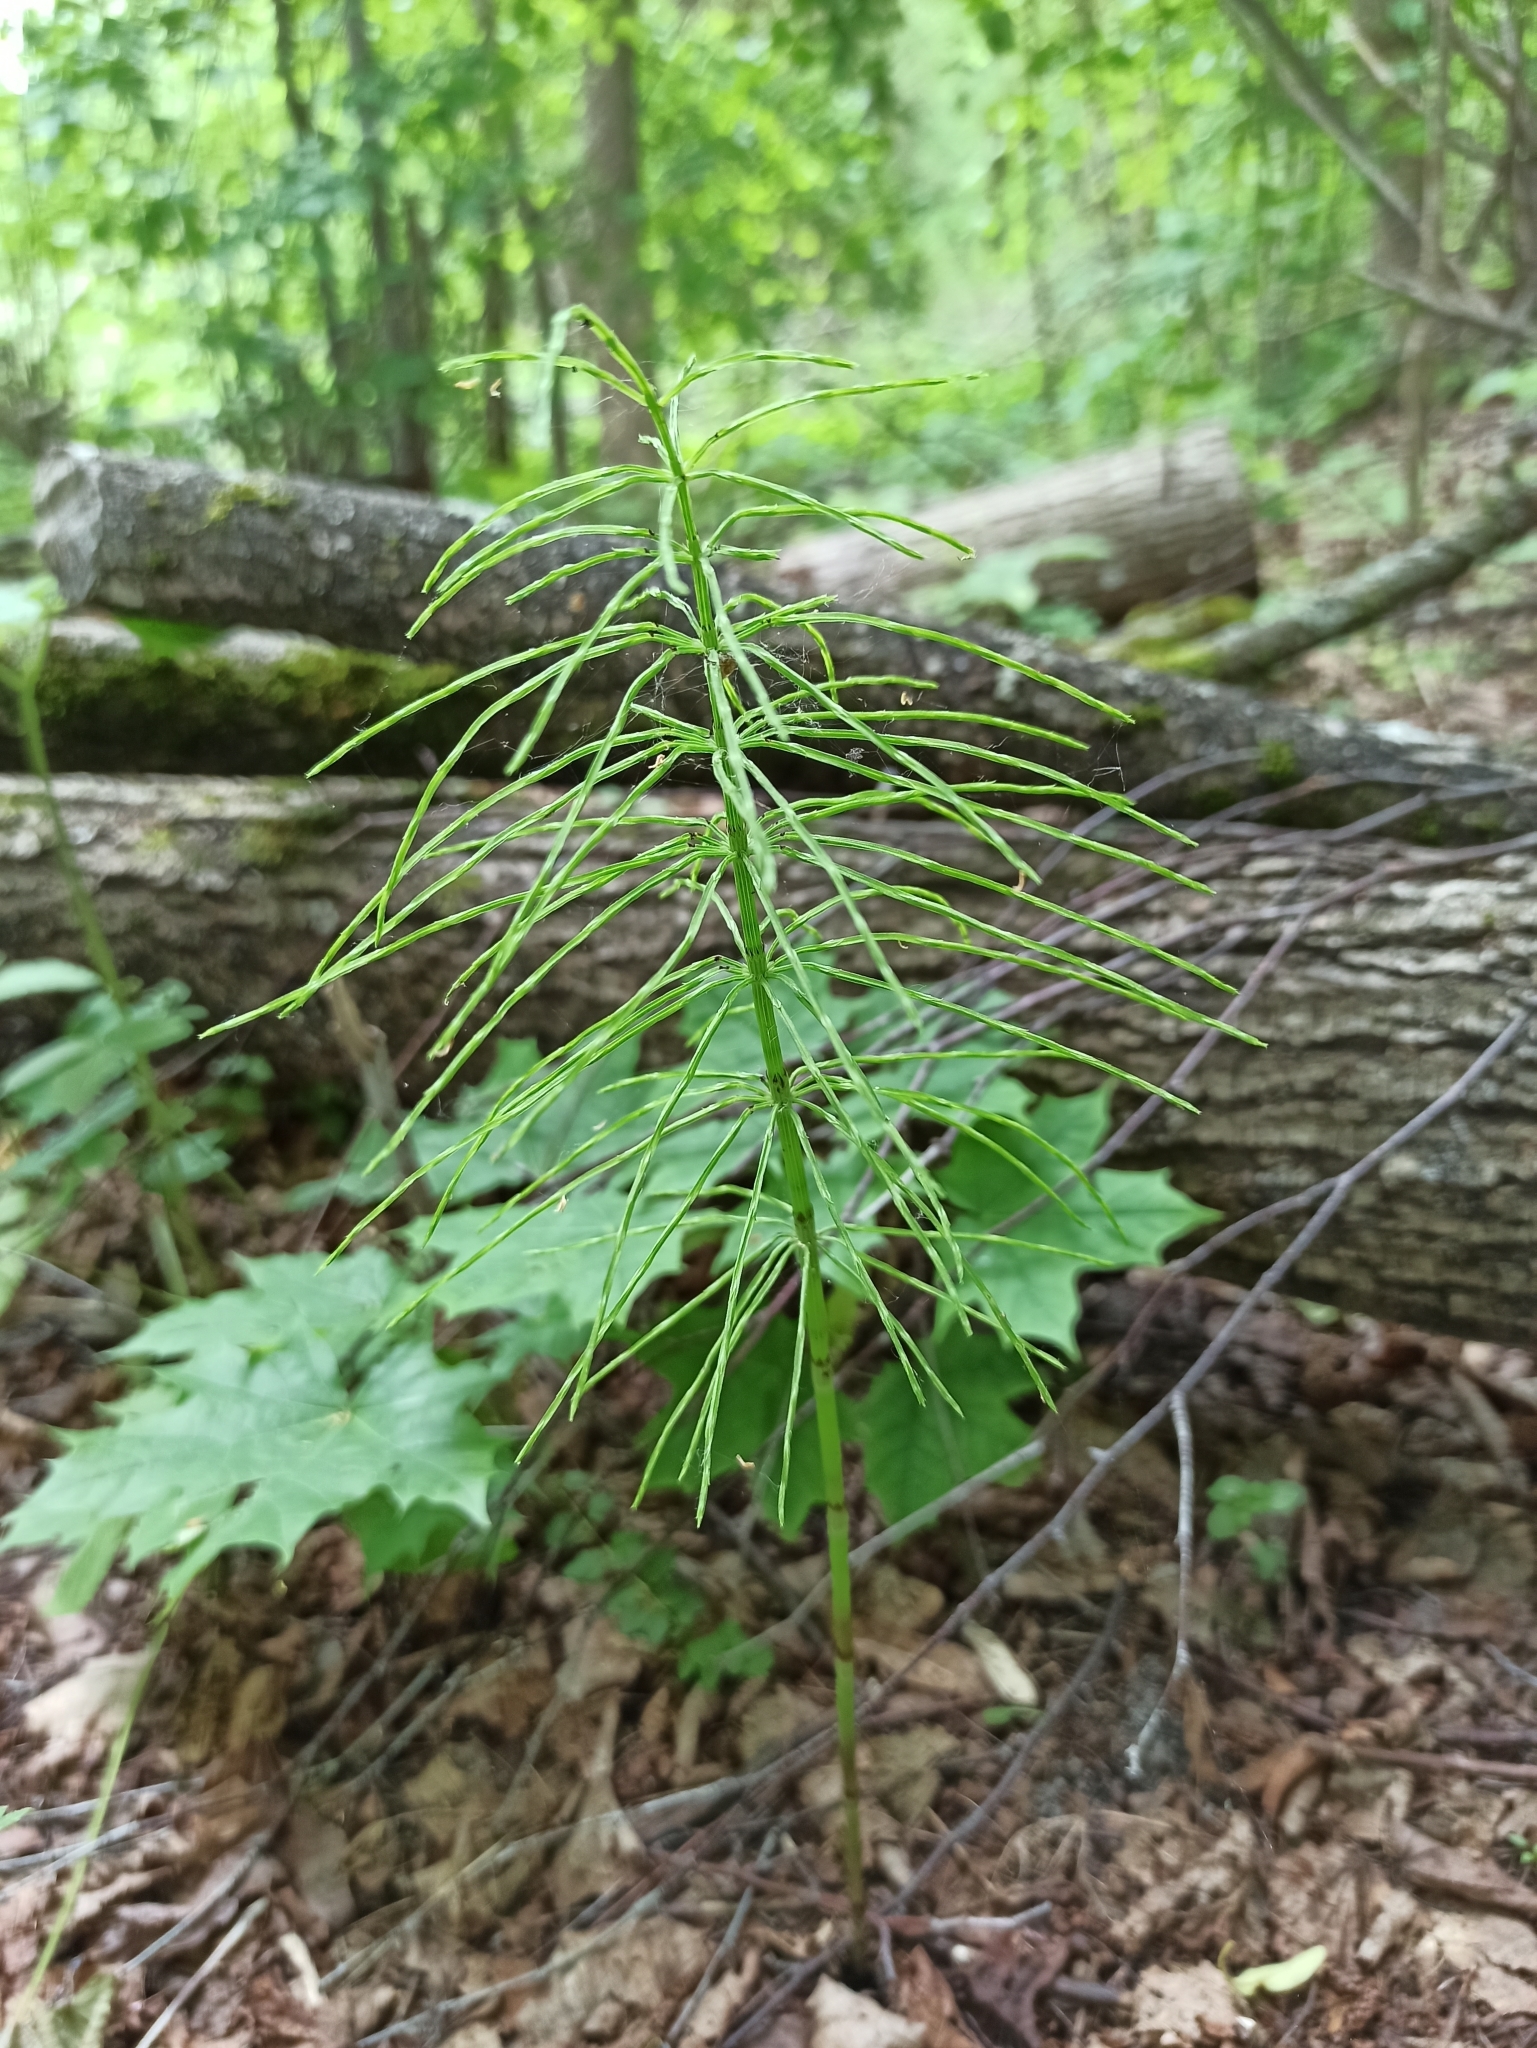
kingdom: Plantae
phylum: Tracheophyta
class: Polypodiopsida
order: Equisetales
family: Equisetaceae
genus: Equisetum
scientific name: Equisetum arvense
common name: Field horsetail
